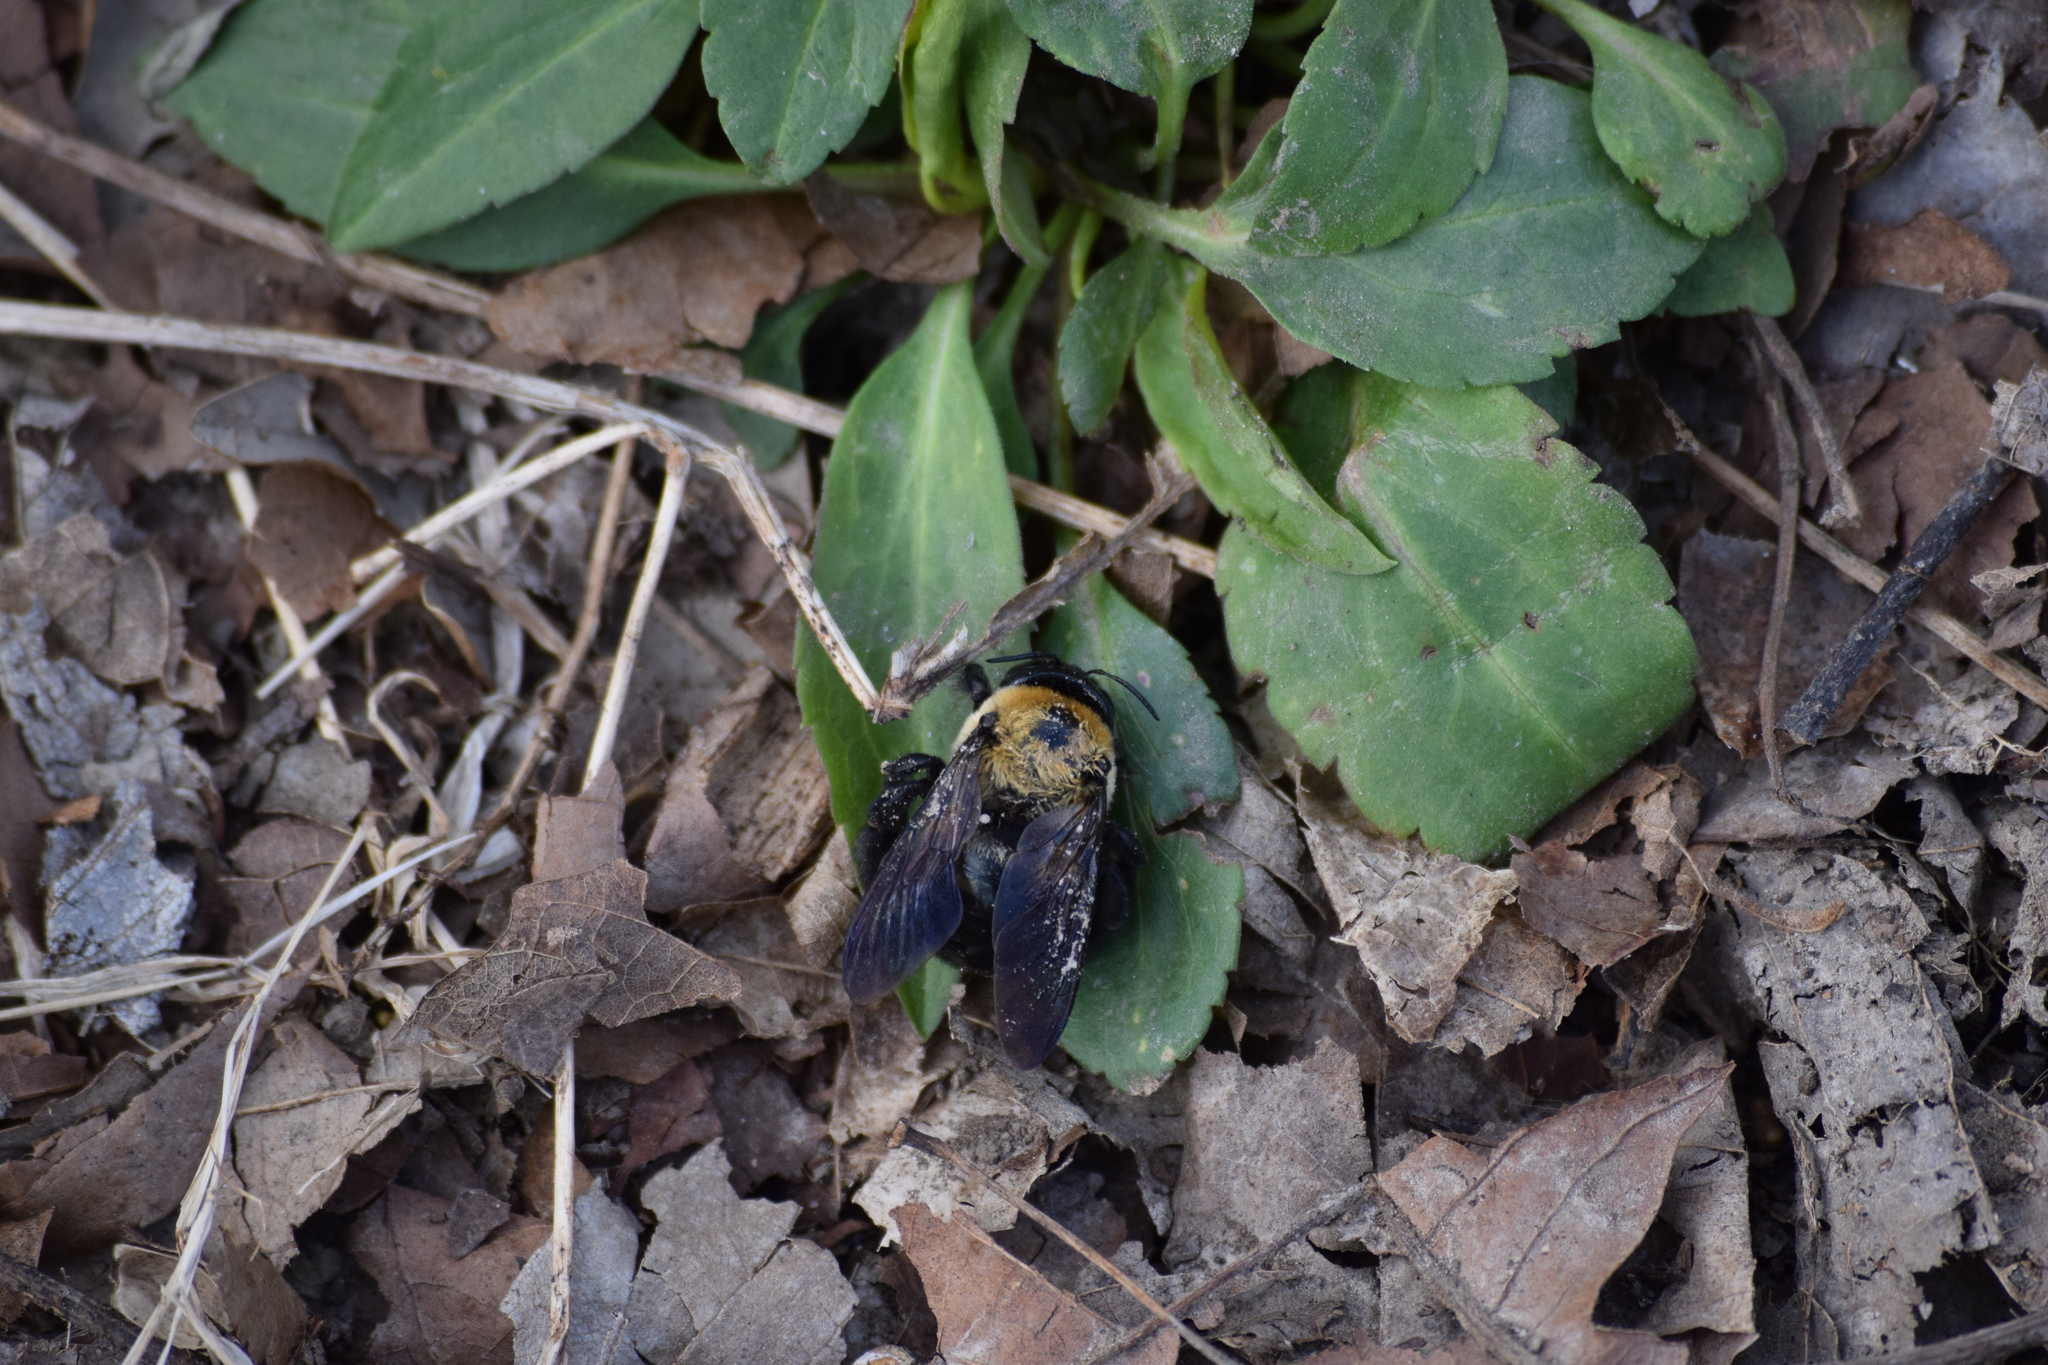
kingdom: Animalia
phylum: Arthropoda
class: Insecta
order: Hymenoptera
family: Apidae
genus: Xylocopa
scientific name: Xylocopa virginica
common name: Carpenter bee
